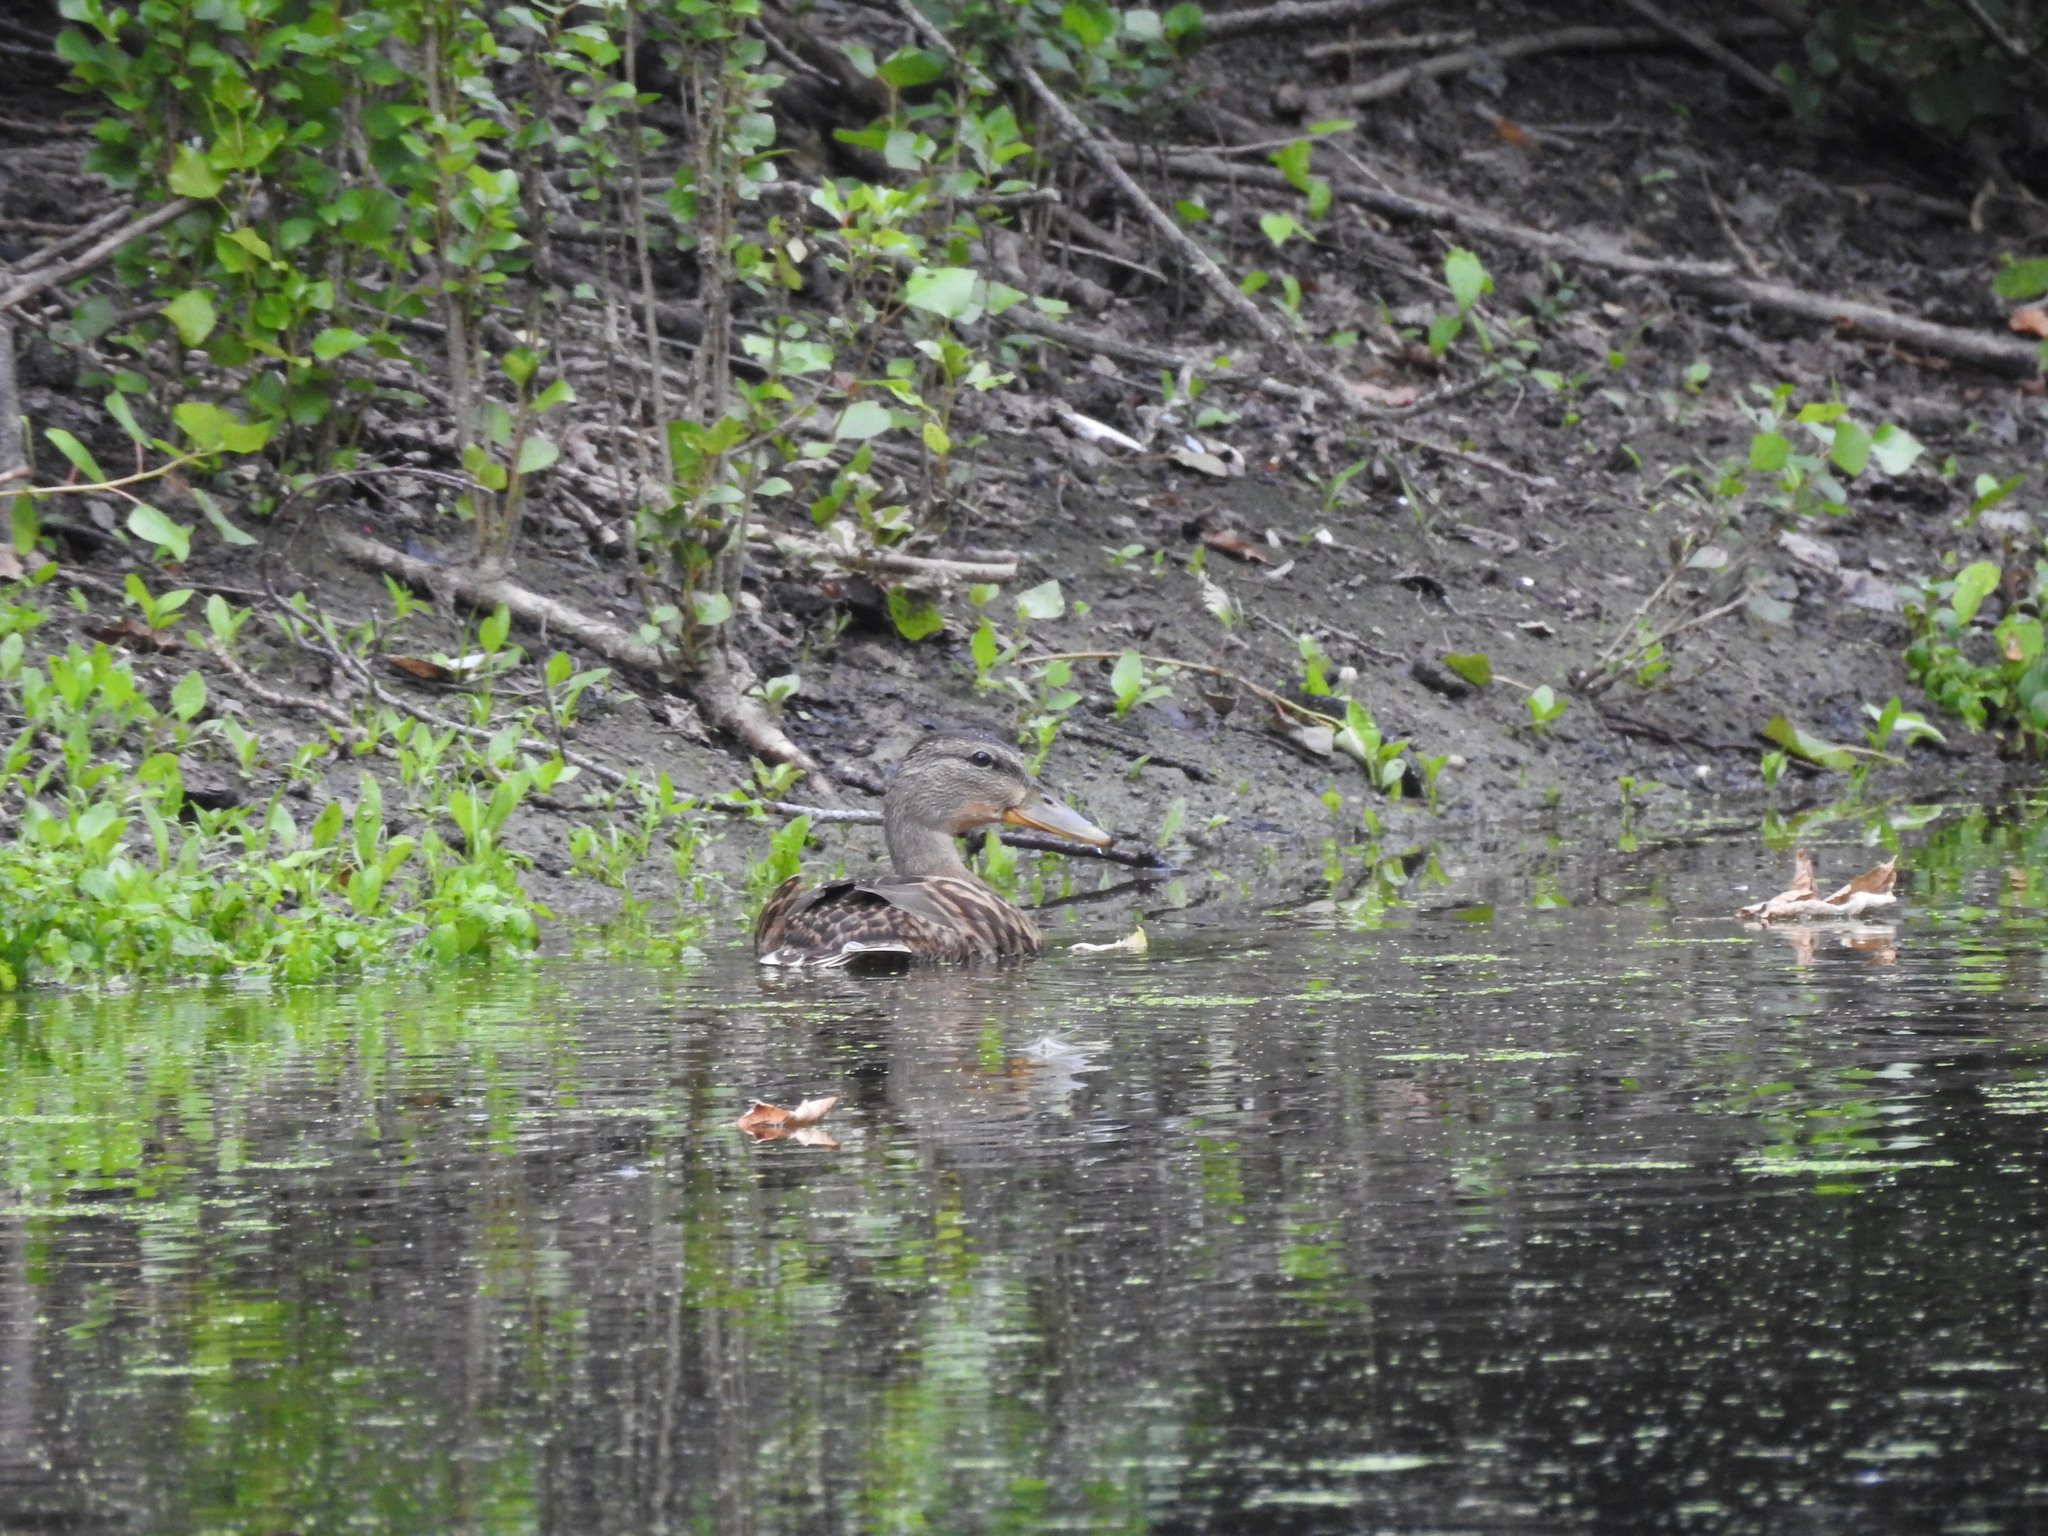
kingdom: Animalia
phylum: Chordata
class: Aves
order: Anseriformes
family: Anatidae
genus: Anas
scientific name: Anas platyrhynchos
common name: Mallard
